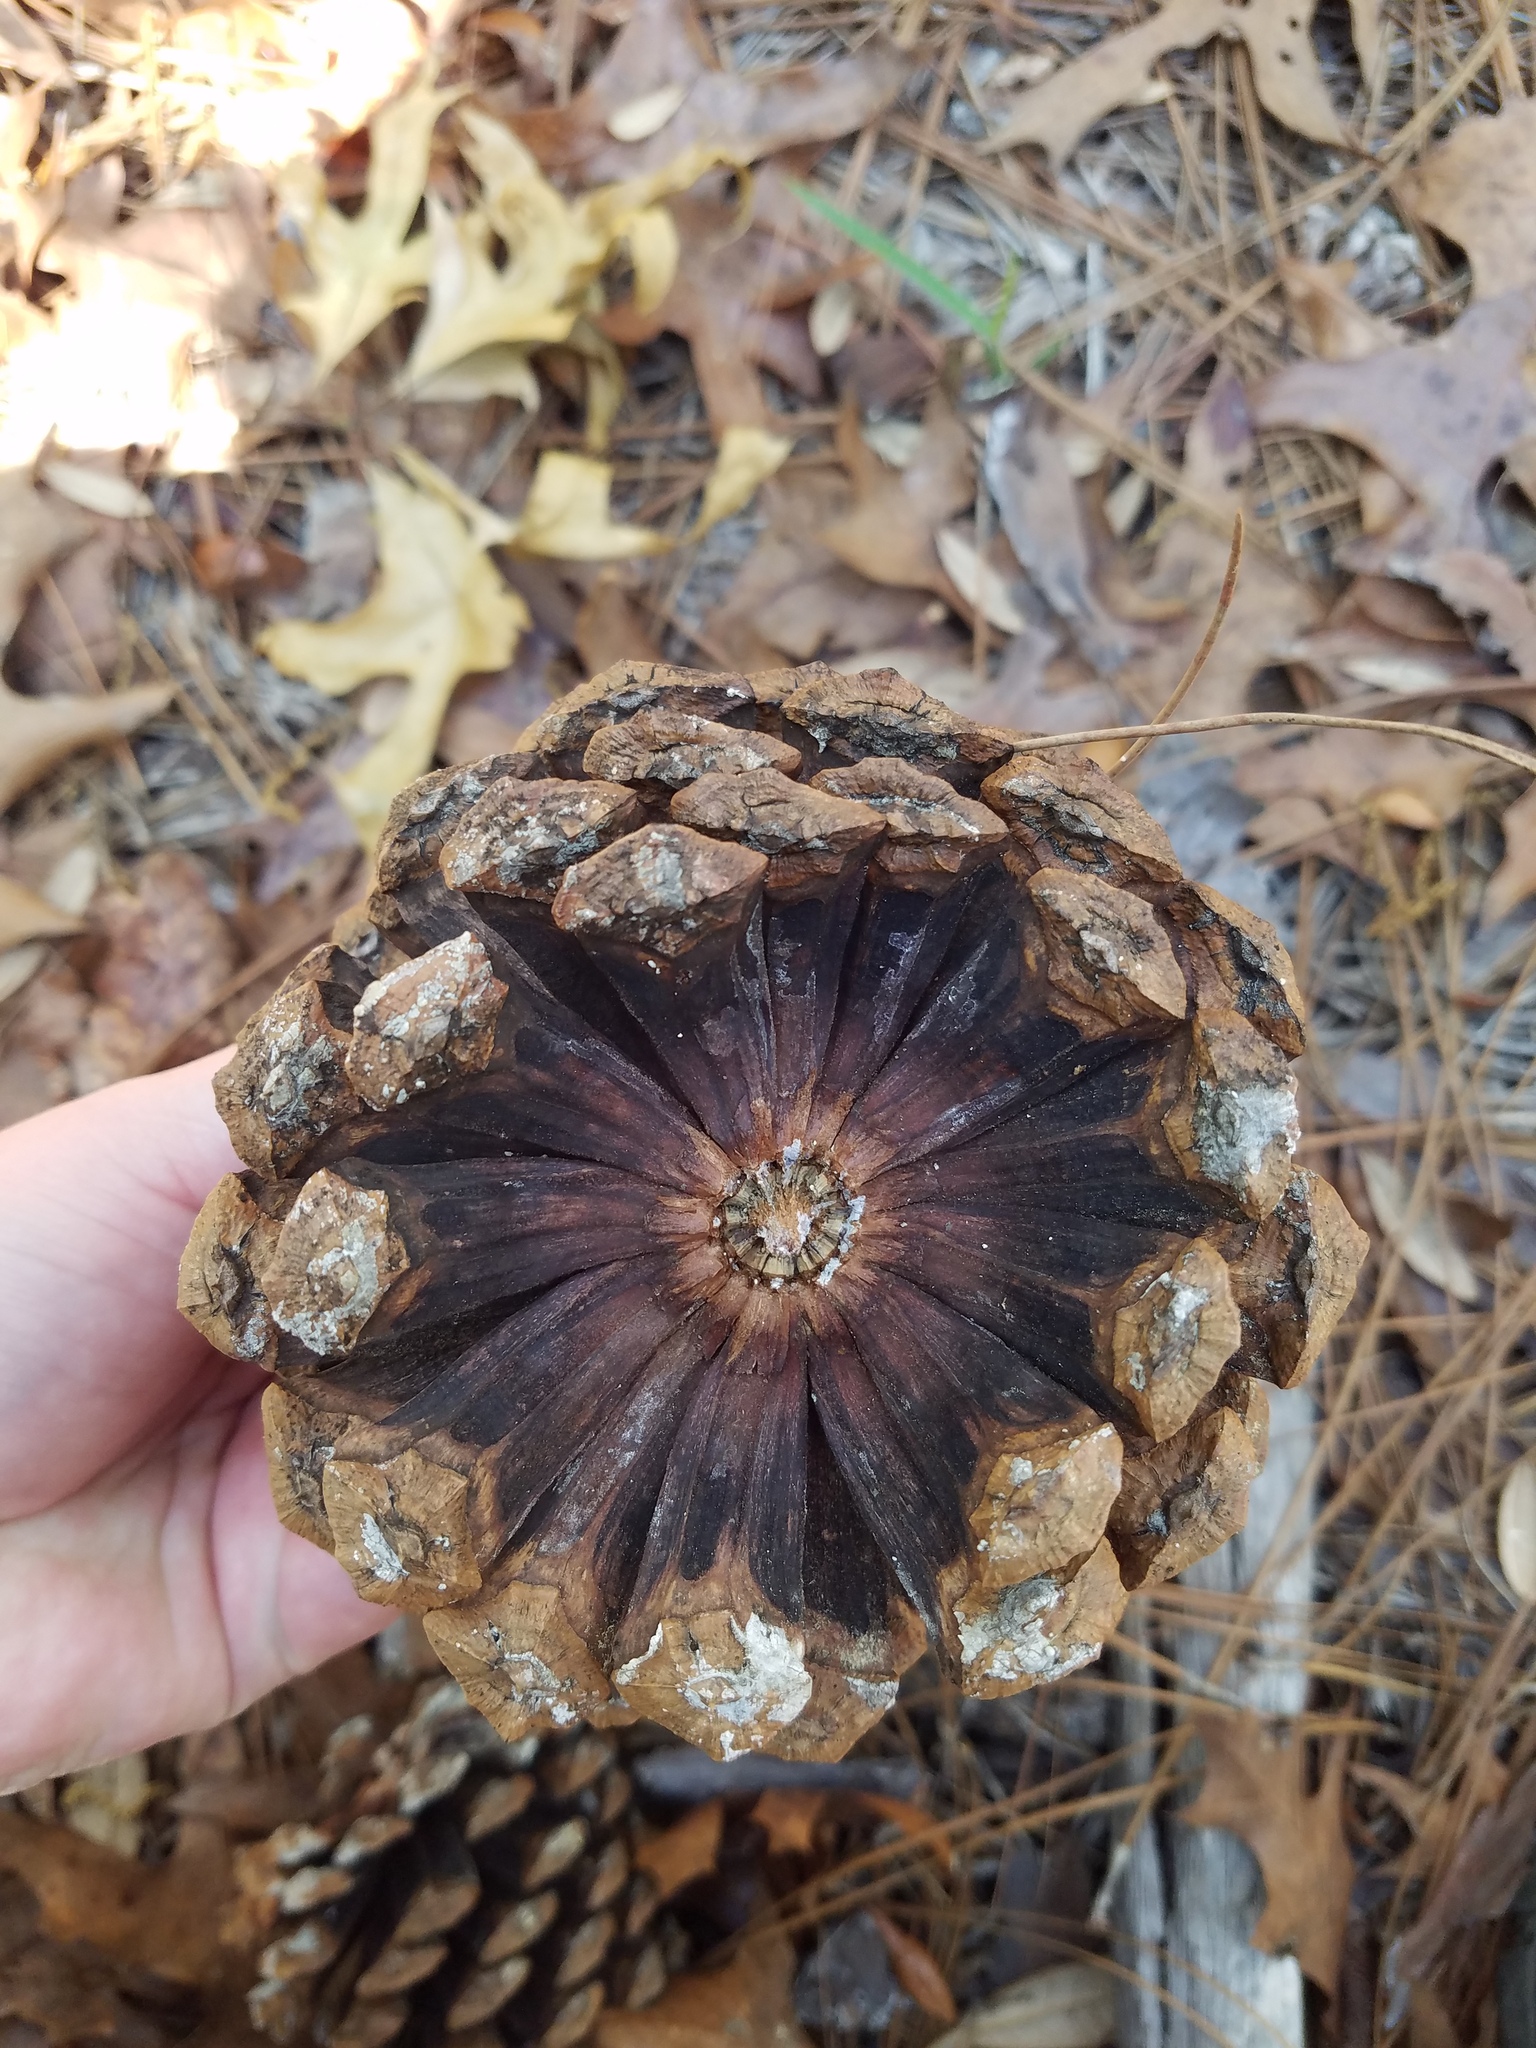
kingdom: Plantae
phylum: Tracheophyta
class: Pinopsida
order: Pinales
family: Pinaceae
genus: Pinus
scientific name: Pinus palustris
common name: Longleaf pine
